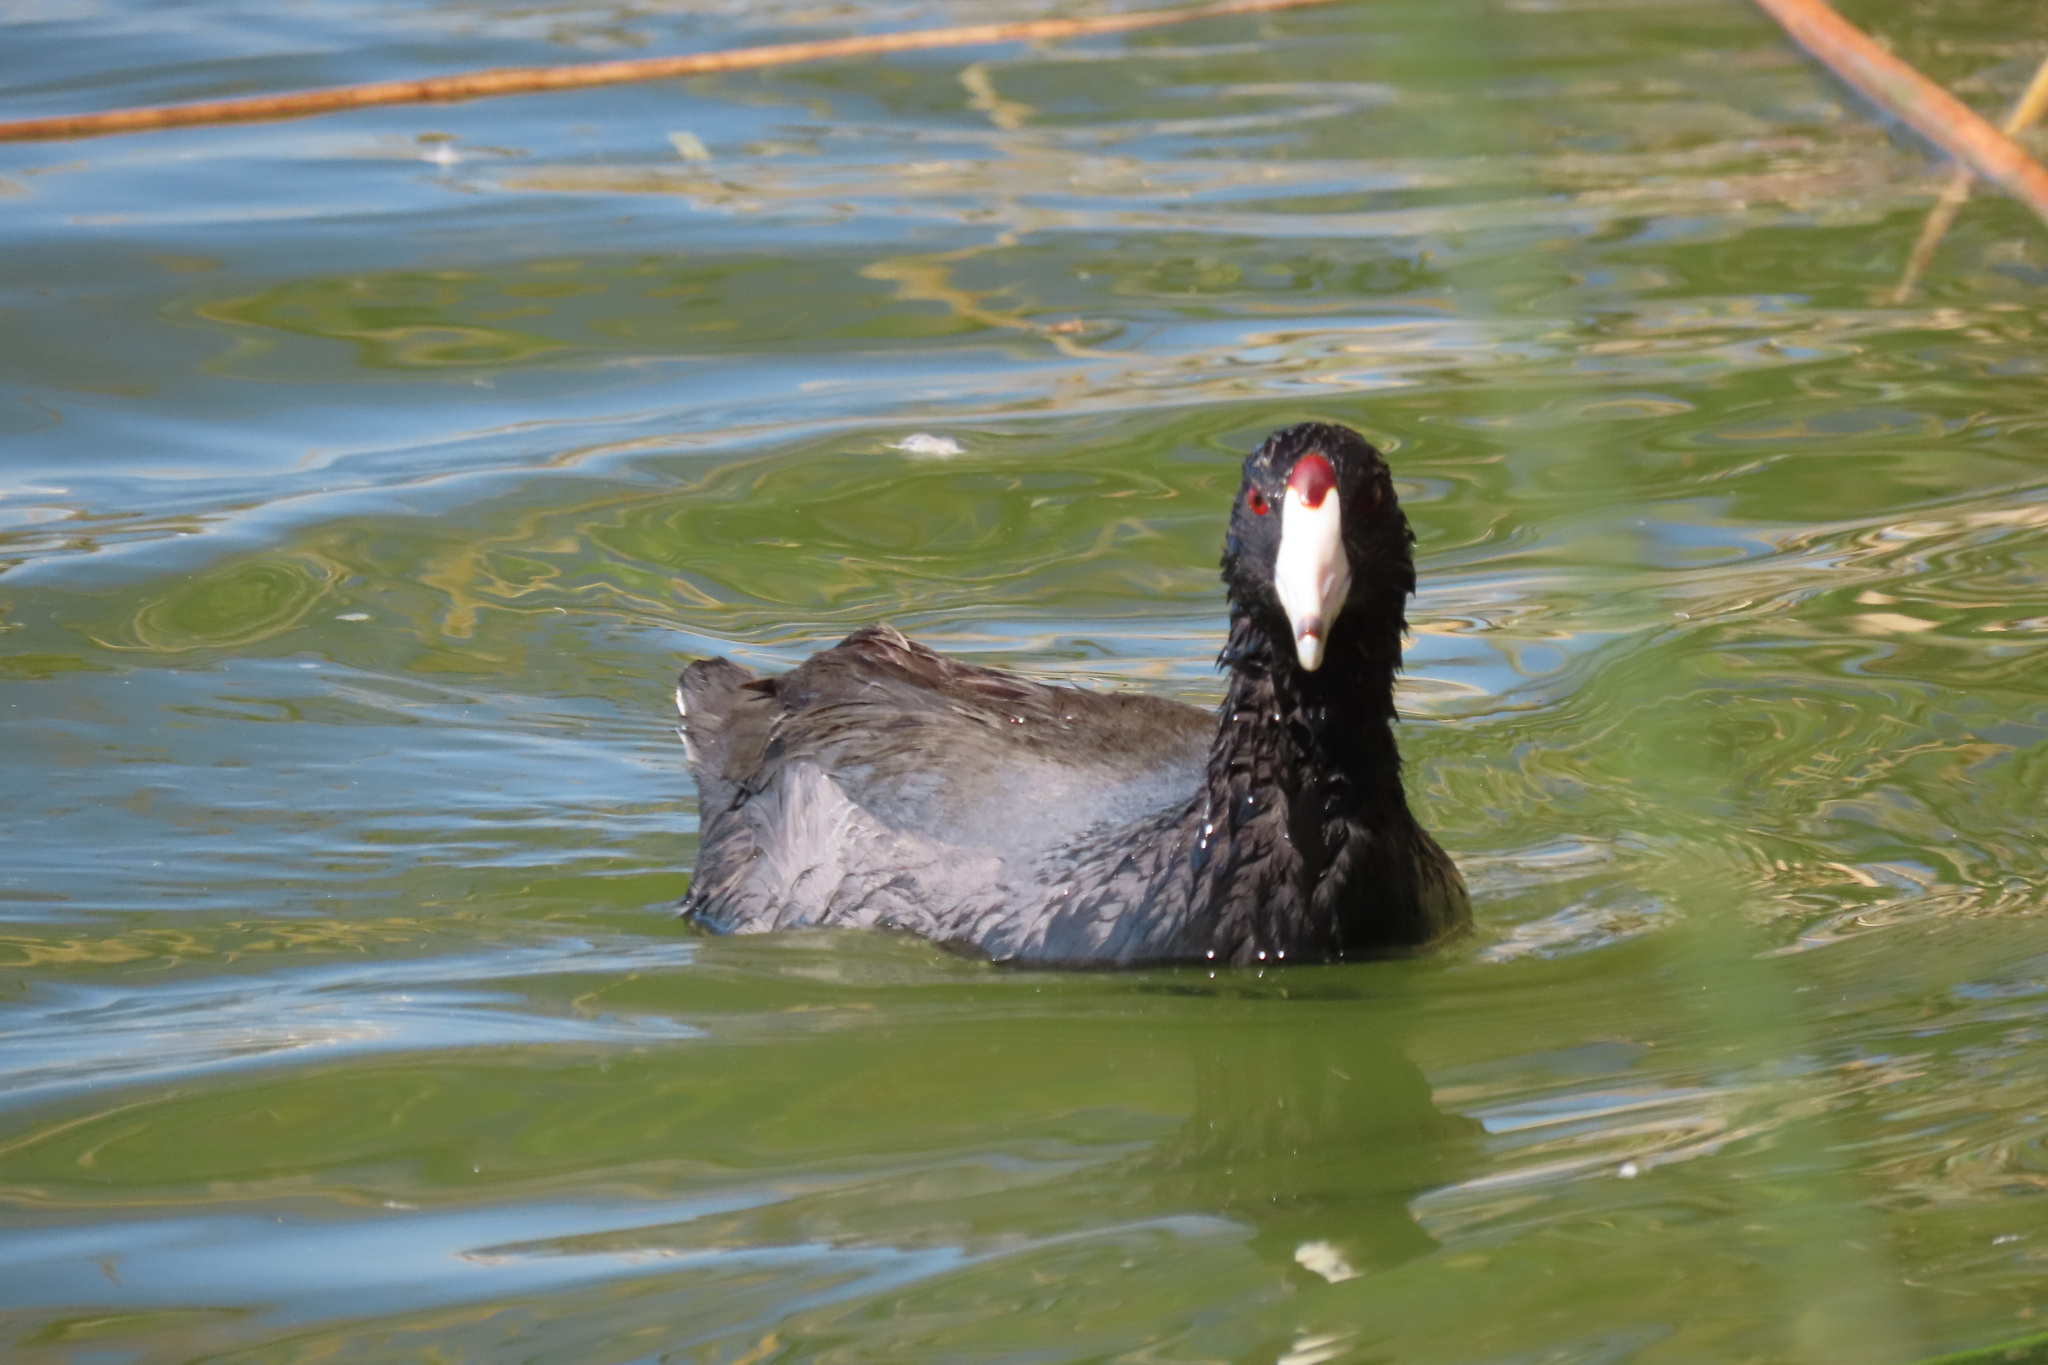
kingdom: Animalia
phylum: Chordata
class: Aves
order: Gruiformes
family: Rallidae
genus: Fulica
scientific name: Fulica americana
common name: American coot
